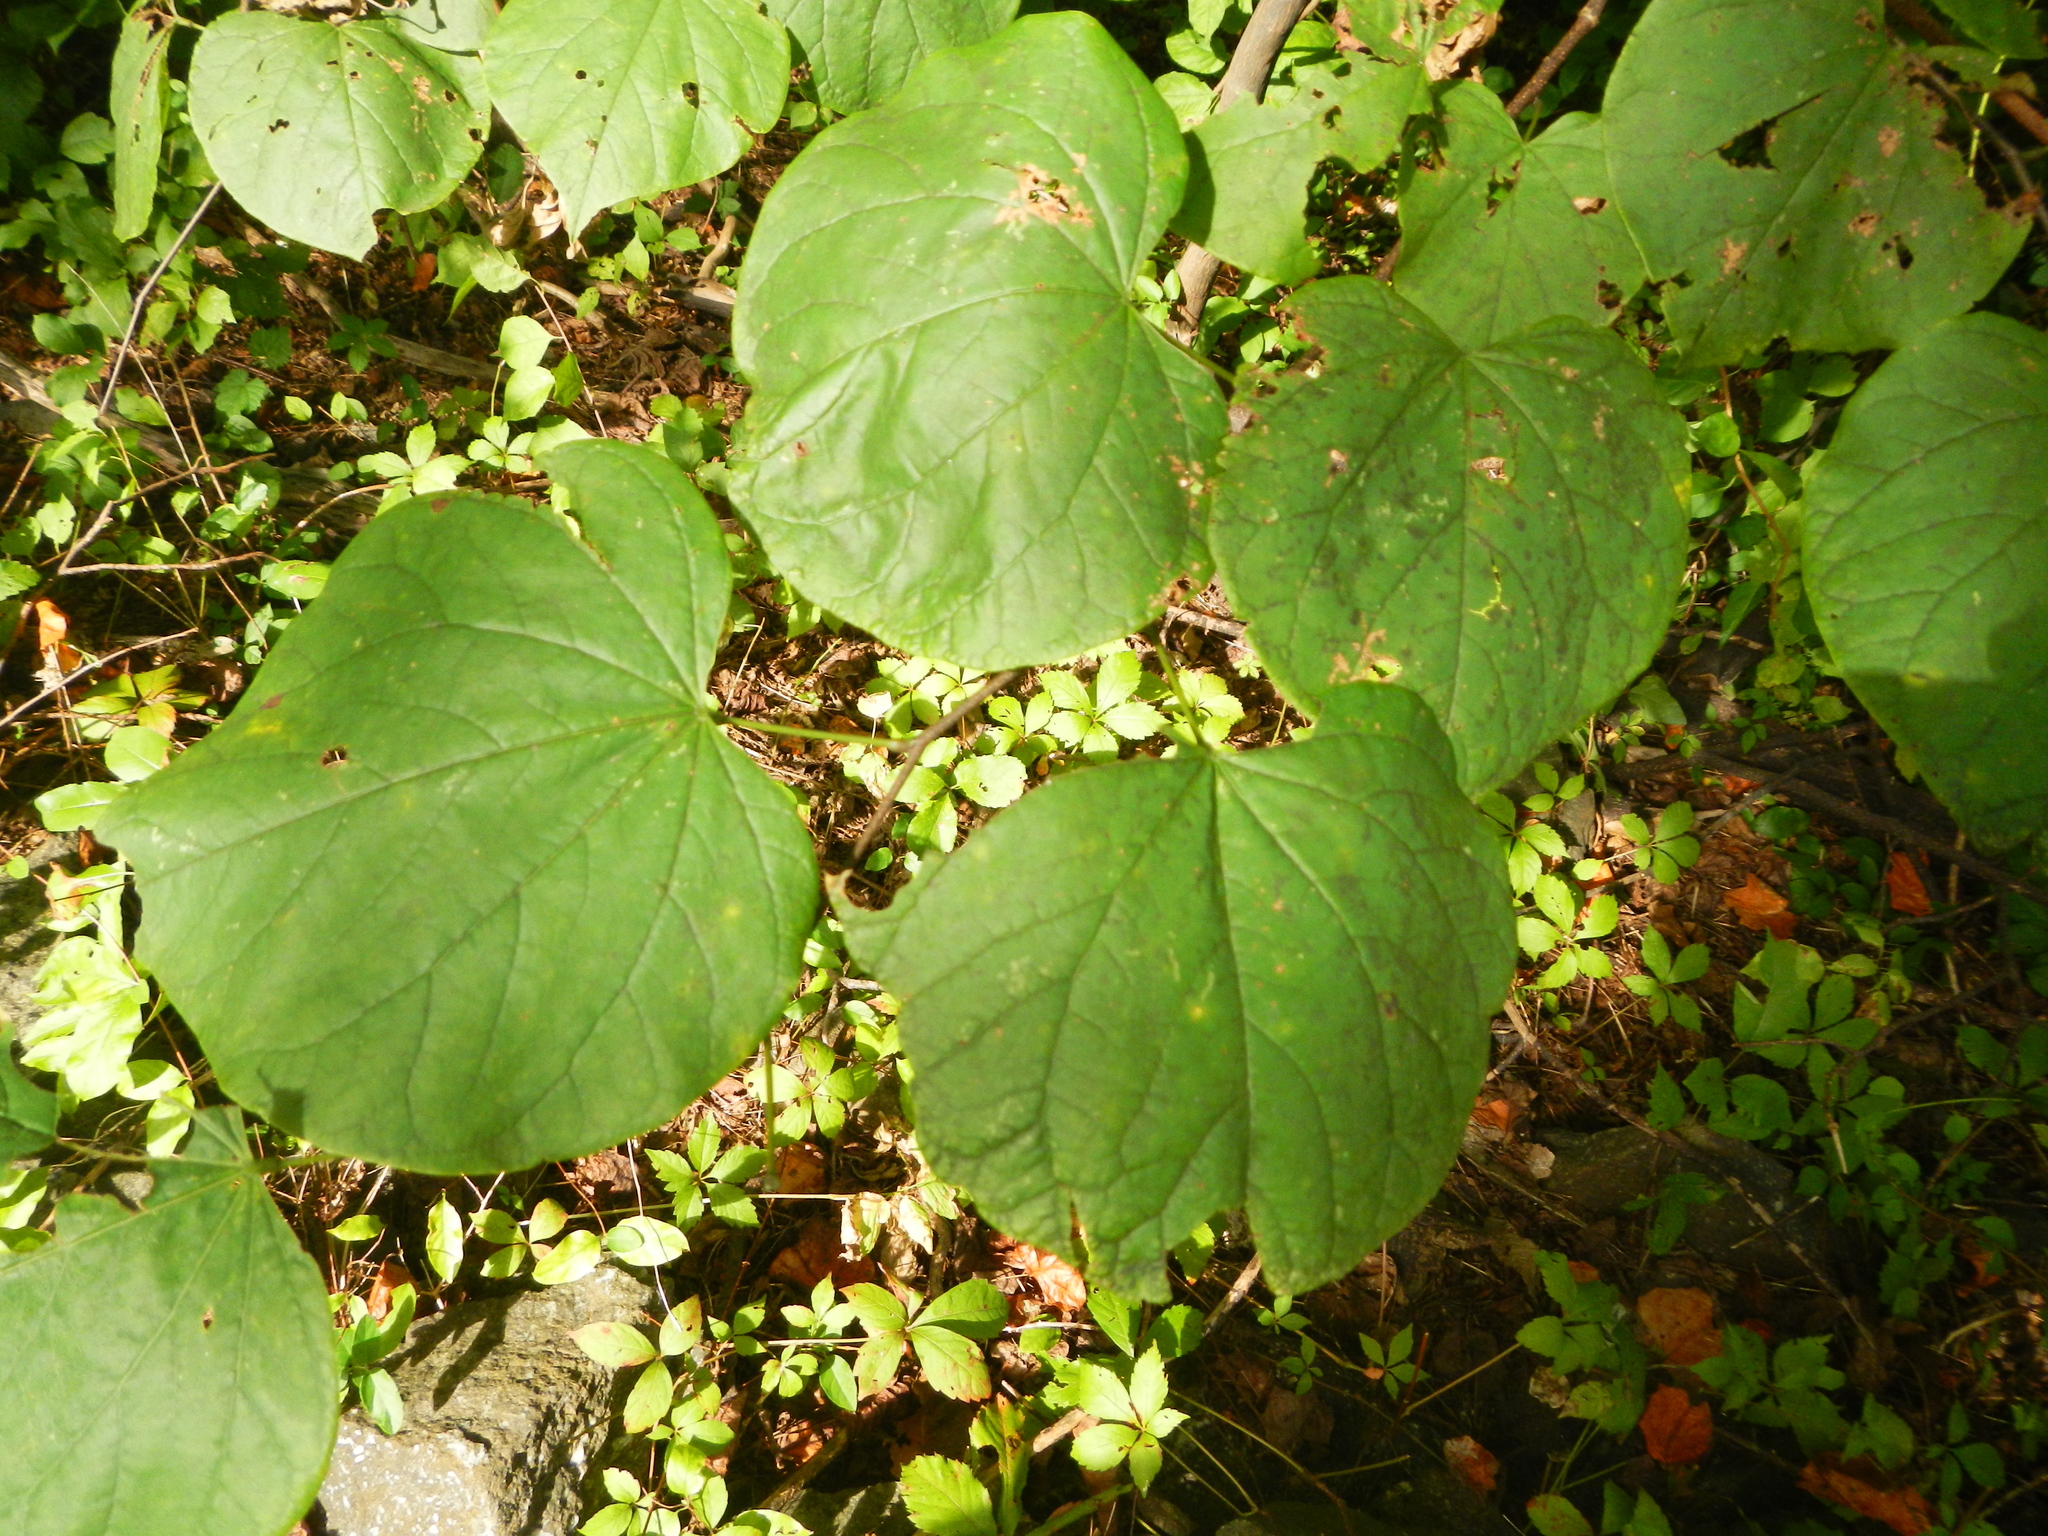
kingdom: Plantae
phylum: Tracheophyta
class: Magnoliopsida
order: Fabales
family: Fabaceae
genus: Cercis
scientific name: Cercis canadensis
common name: Eastern redbud
